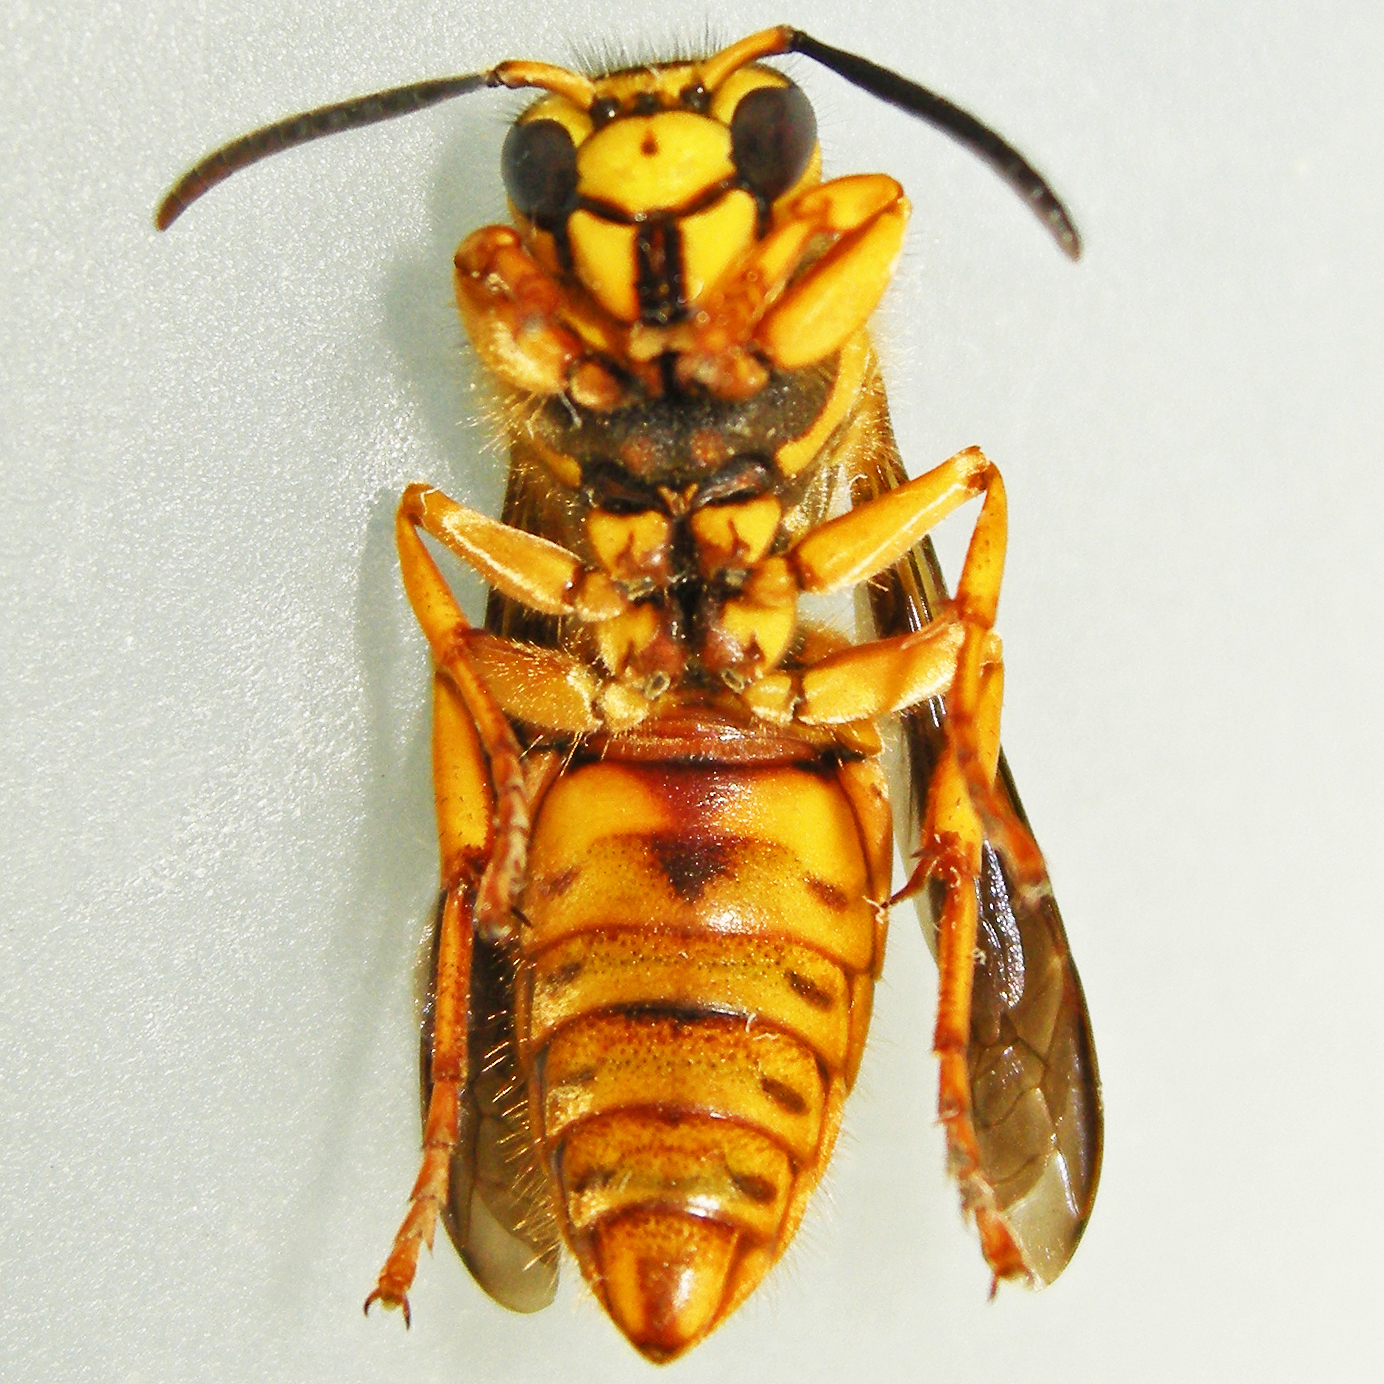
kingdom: Animalia
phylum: Arthropoda
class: Insecta
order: Hymenoptera
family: Vespidae
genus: Vespula
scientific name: Vespula squamosa
